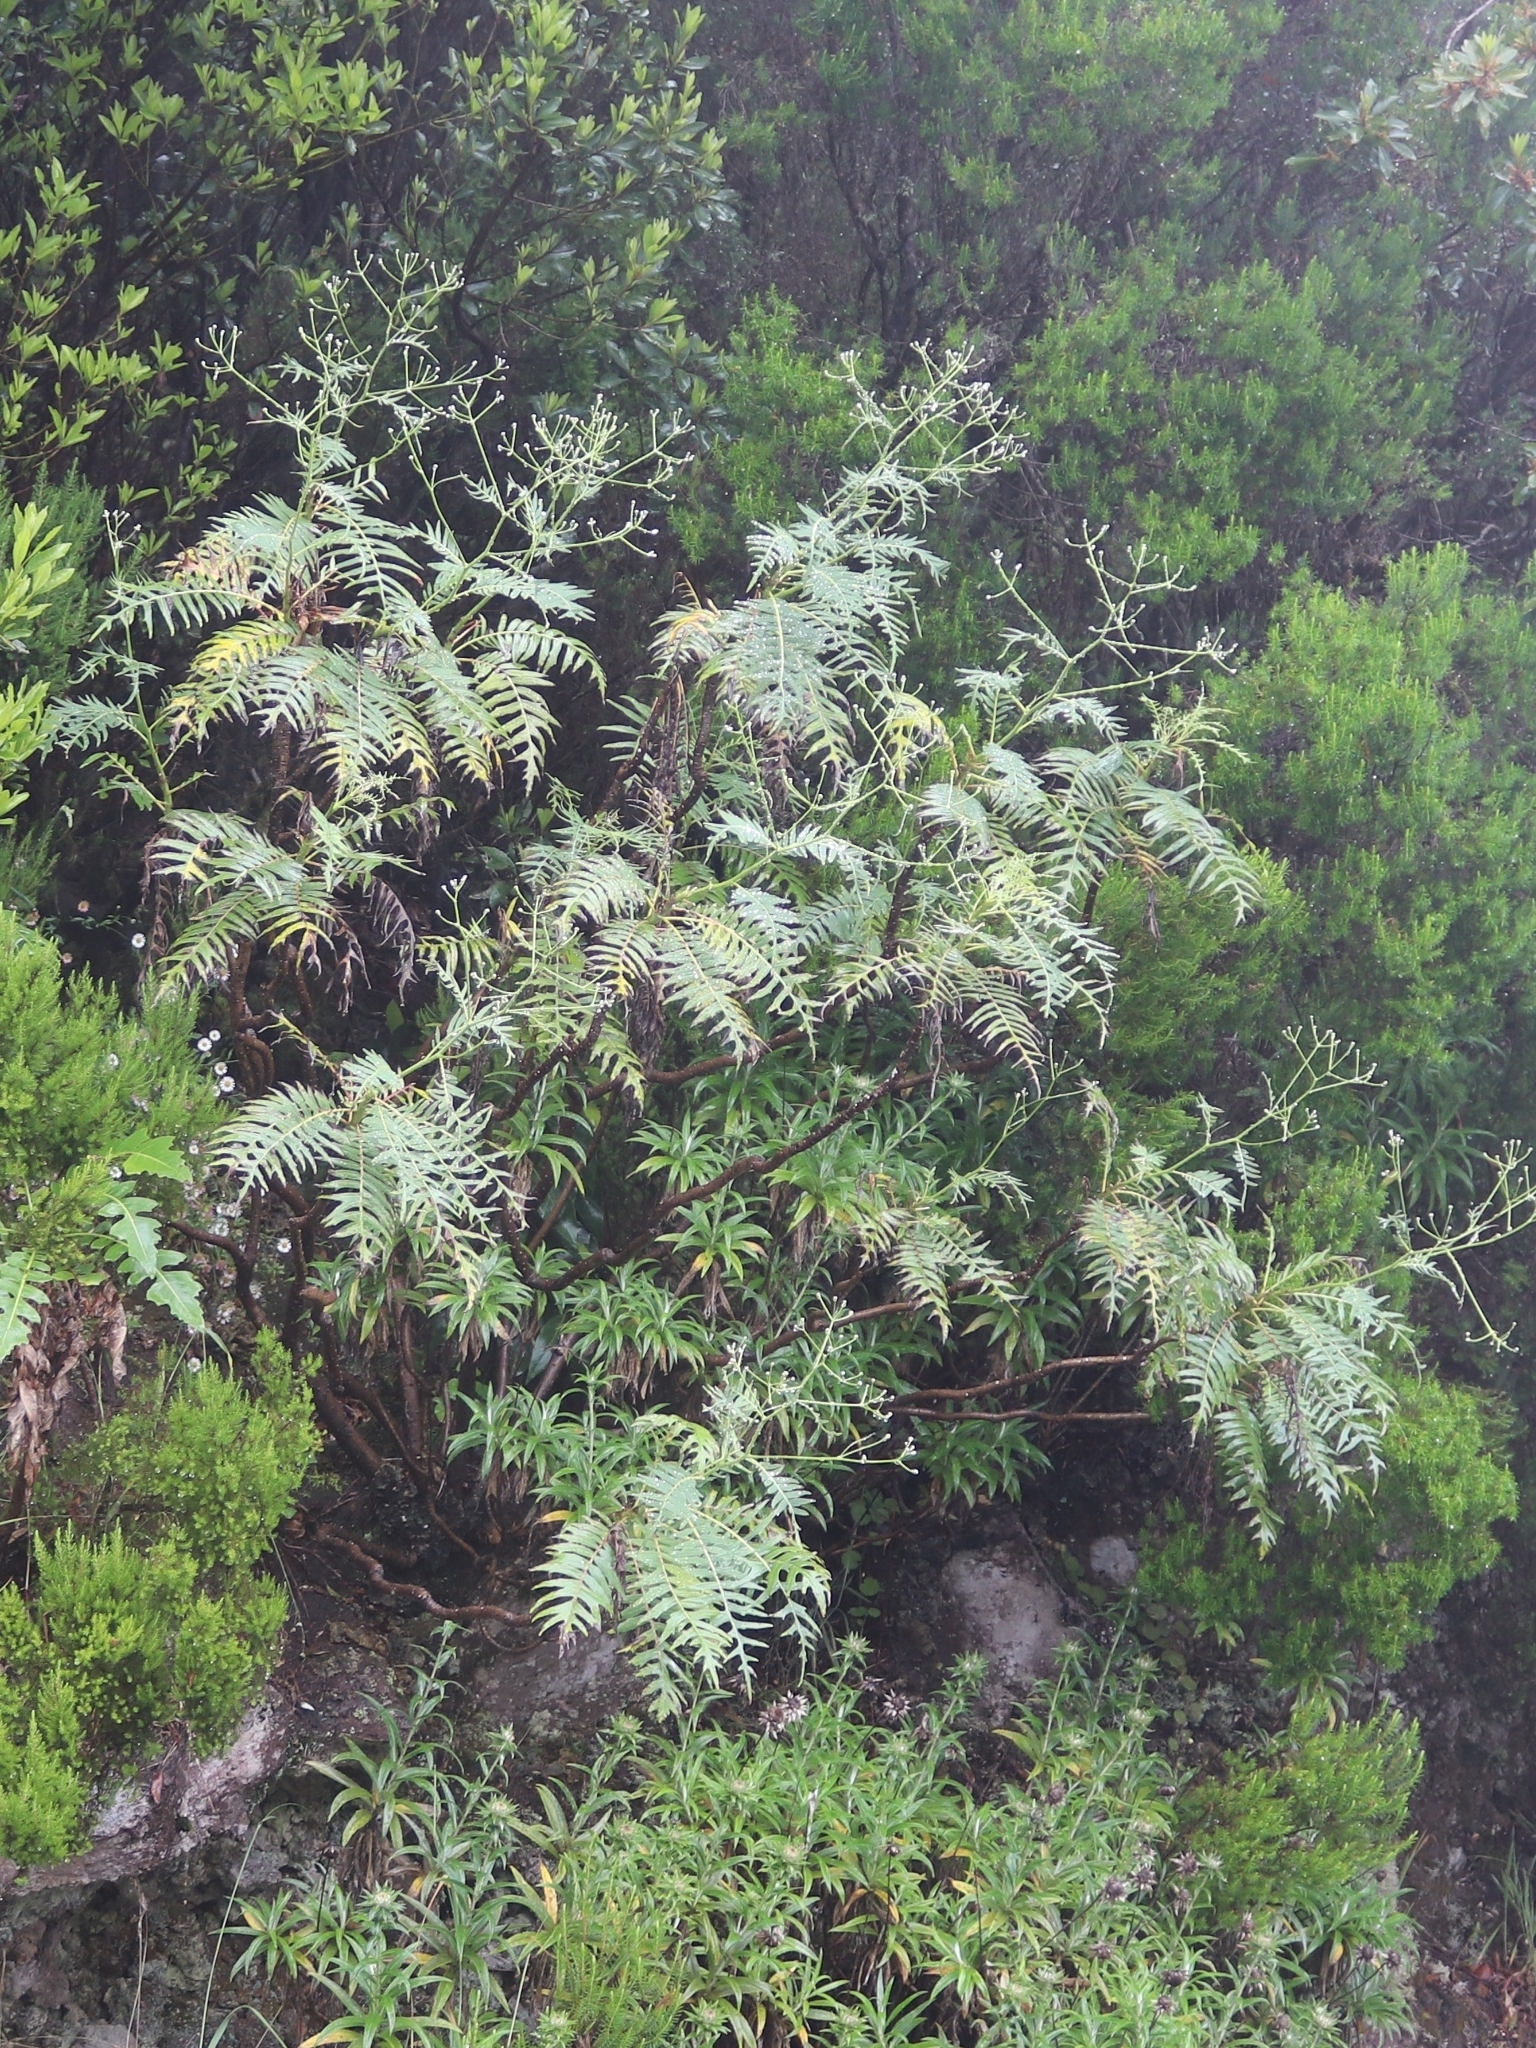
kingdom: Plantae
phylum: Tracheophyta
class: Magnoliopsida
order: Asterales
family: Asteraceae
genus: Sonchus
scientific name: Sonchus pinnatus
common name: Wing-leaved sow-thistle
